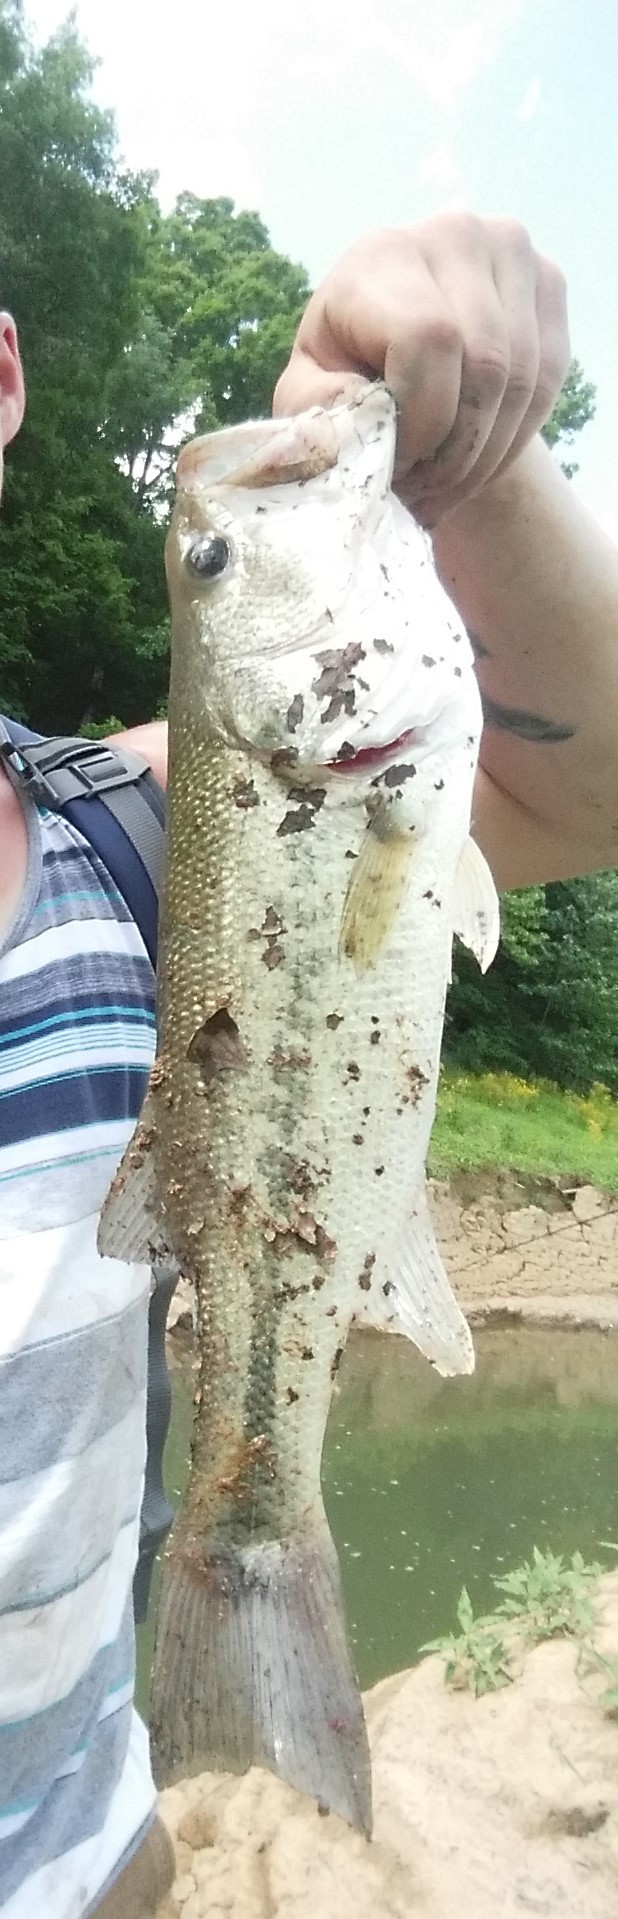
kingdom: Animalia
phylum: Chordata
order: Perciformes
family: Centrarchidae
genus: Micropterus
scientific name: Micropterus
